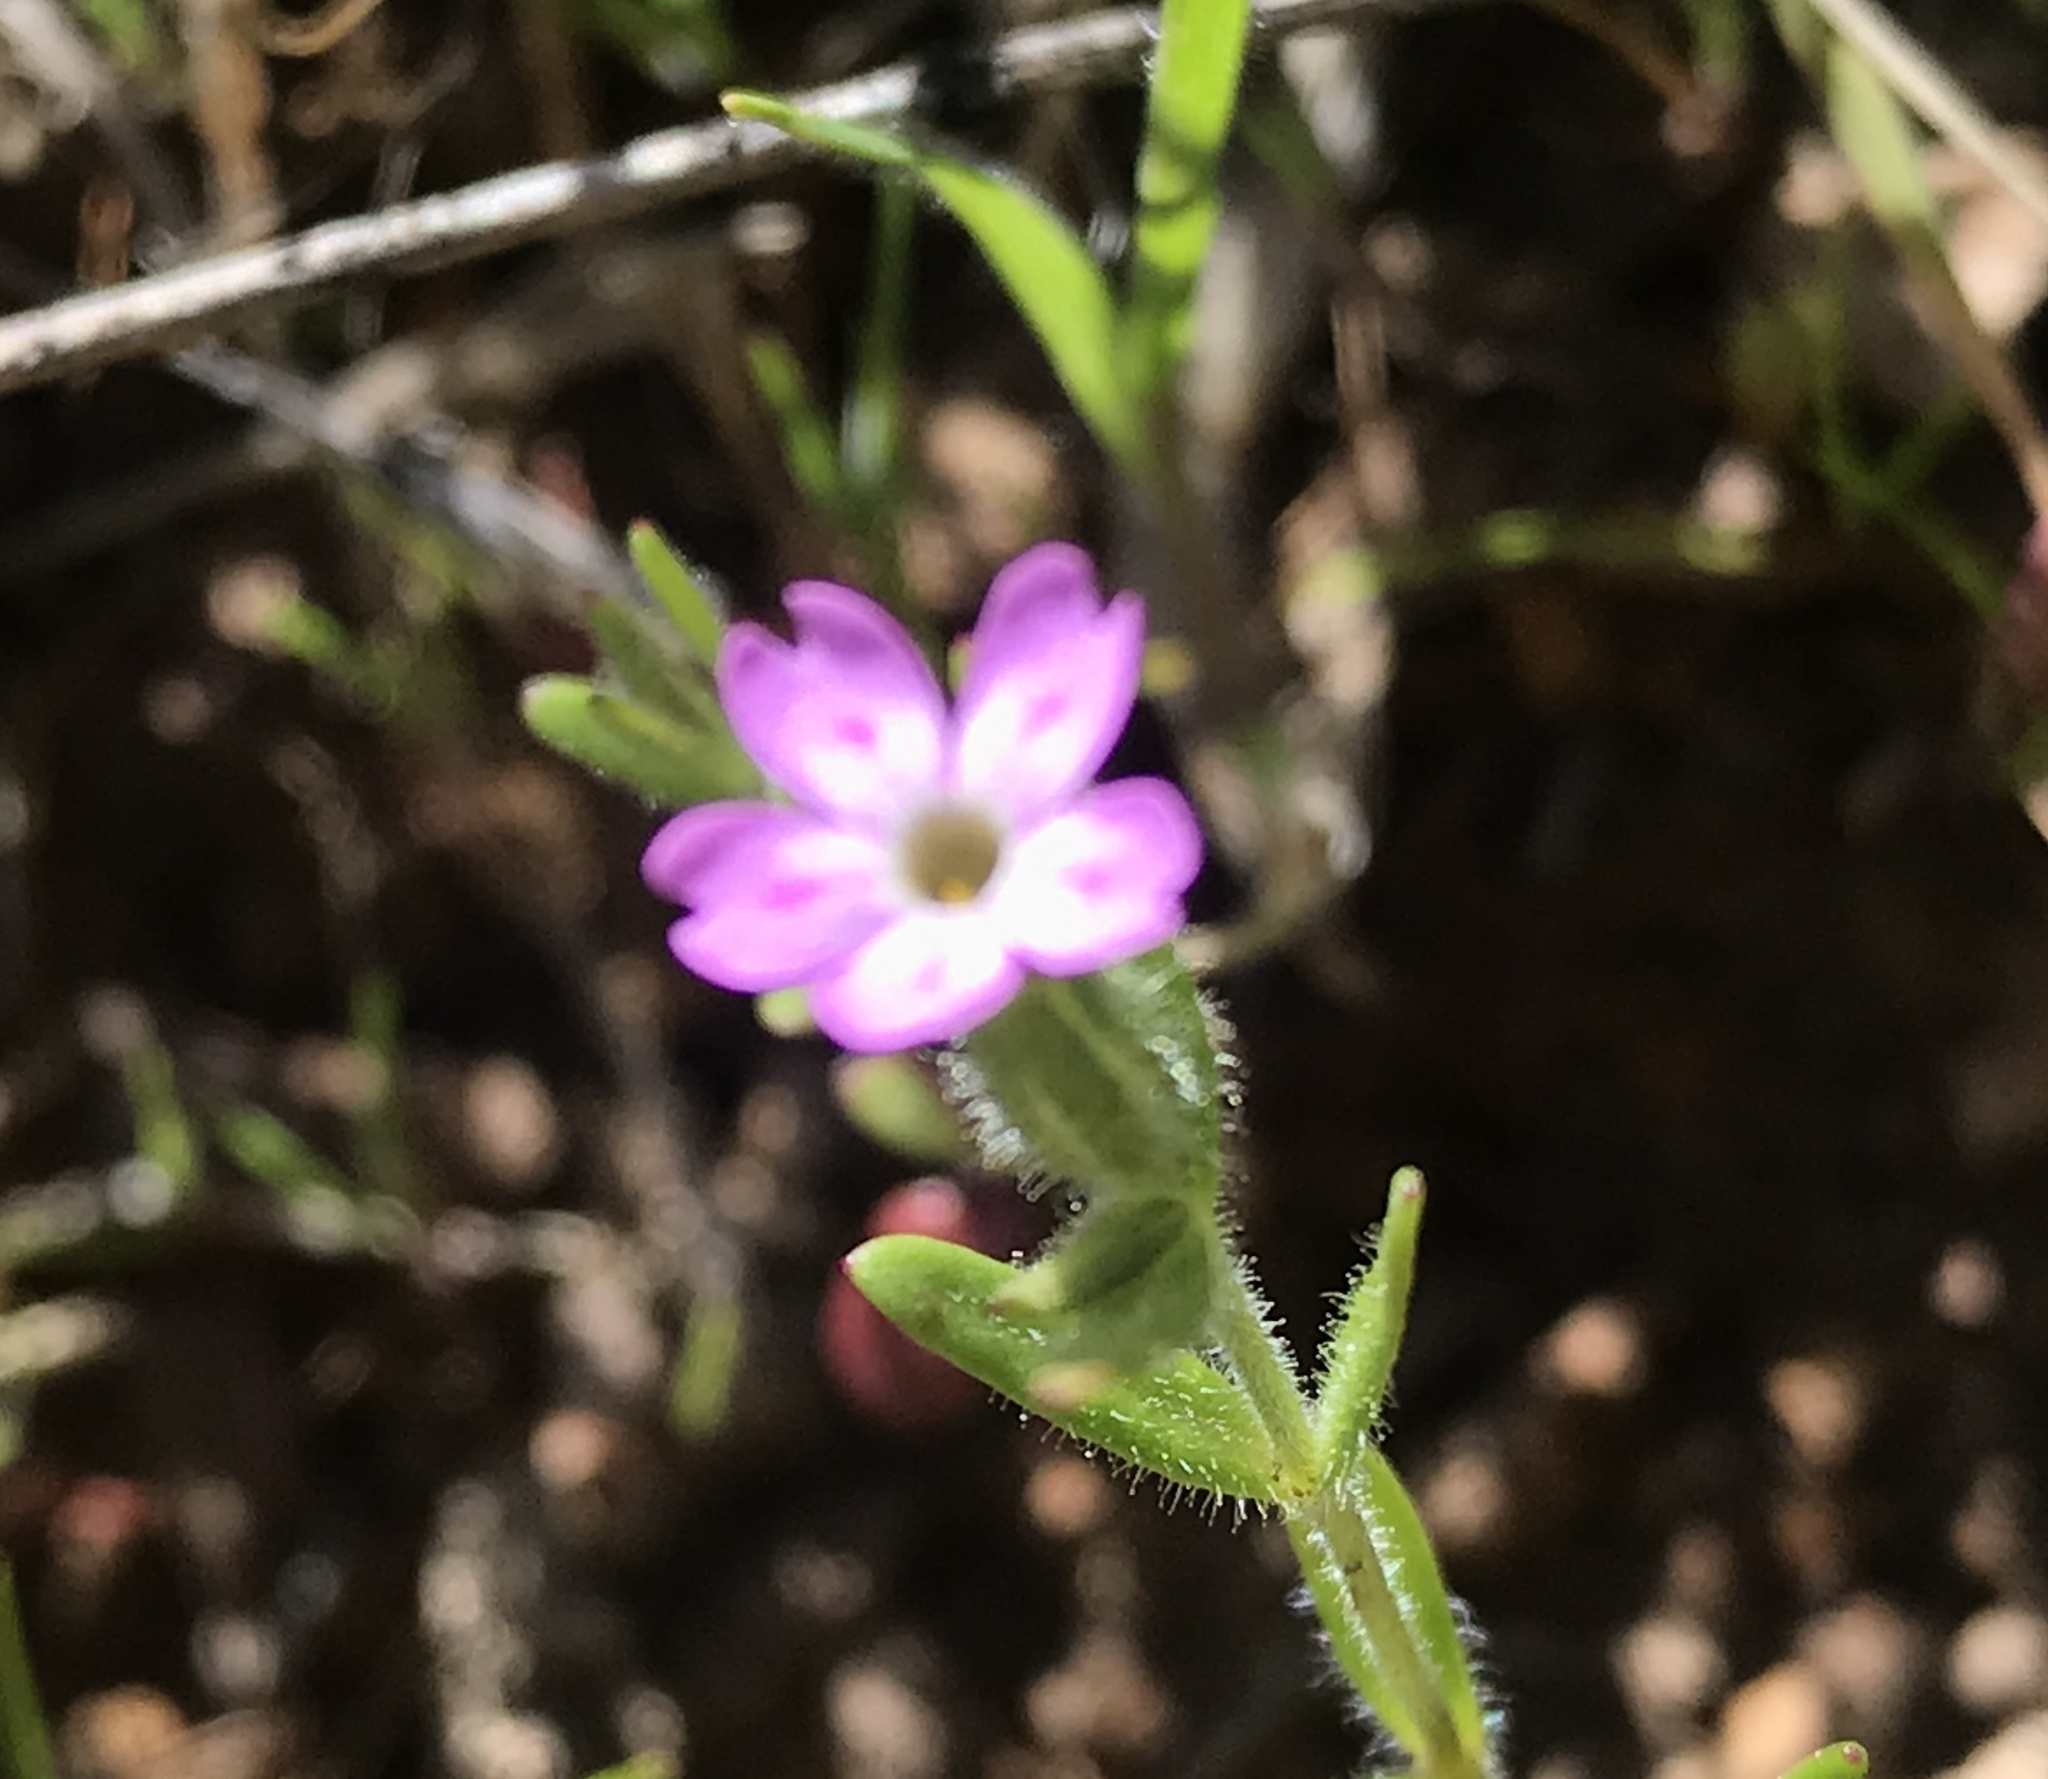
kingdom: Plantae
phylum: Tracheophyta
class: Magnoliopsida
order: Ericales
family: Polemoniaceae
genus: Phlox
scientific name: Phlox gracilis
